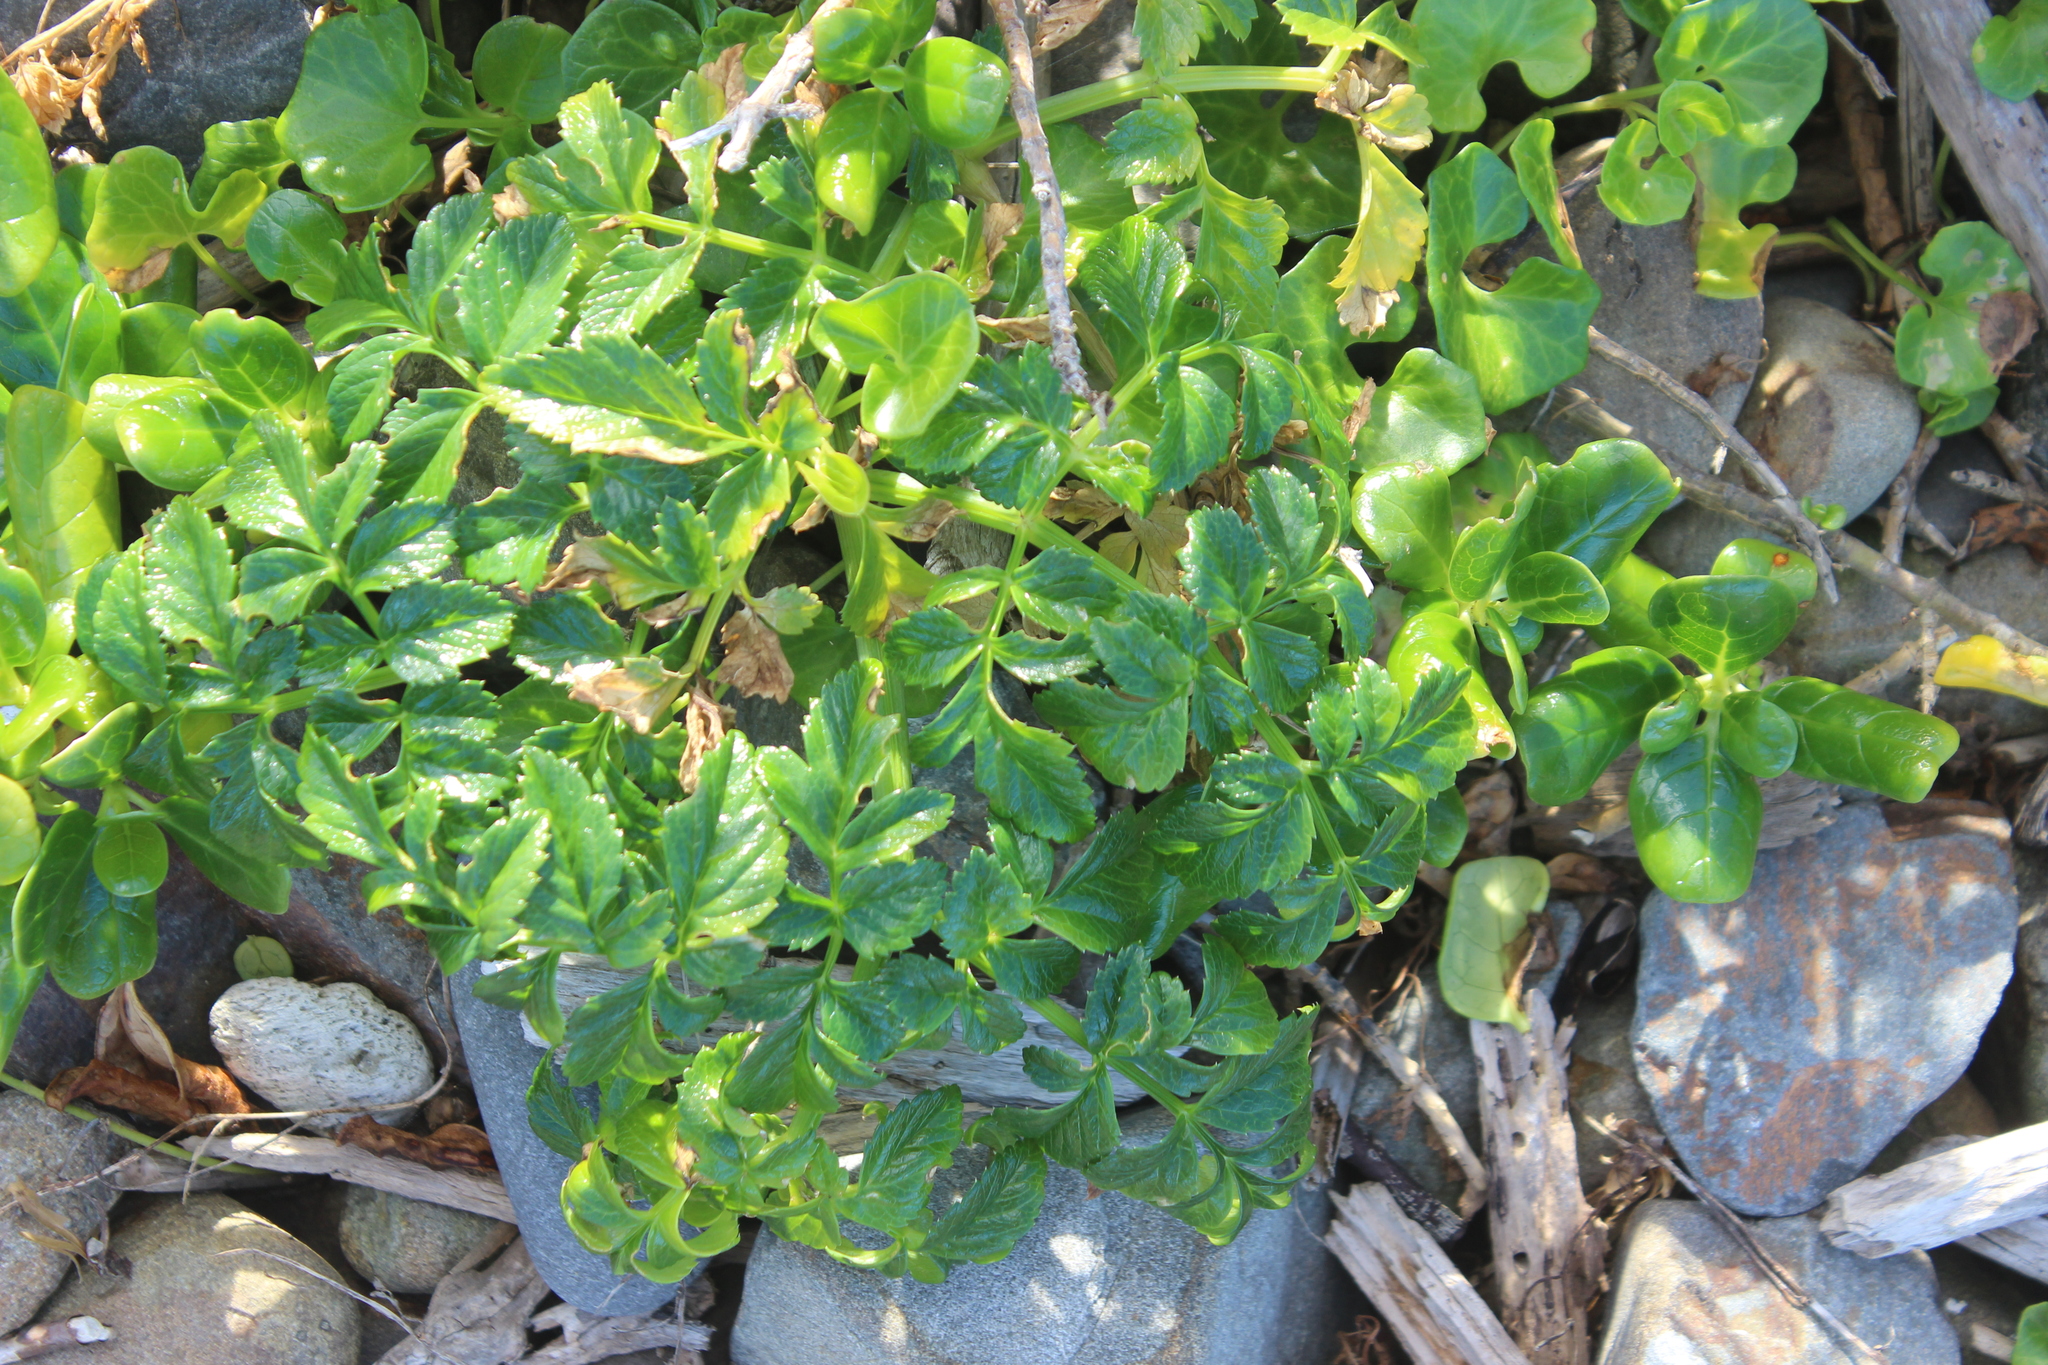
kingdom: Plantae
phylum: Tracheophyta
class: Magnoliopsida
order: Apiales
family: Apiaceae
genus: Angelica
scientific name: Angelica pachycarpa
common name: Portuguese angelica
